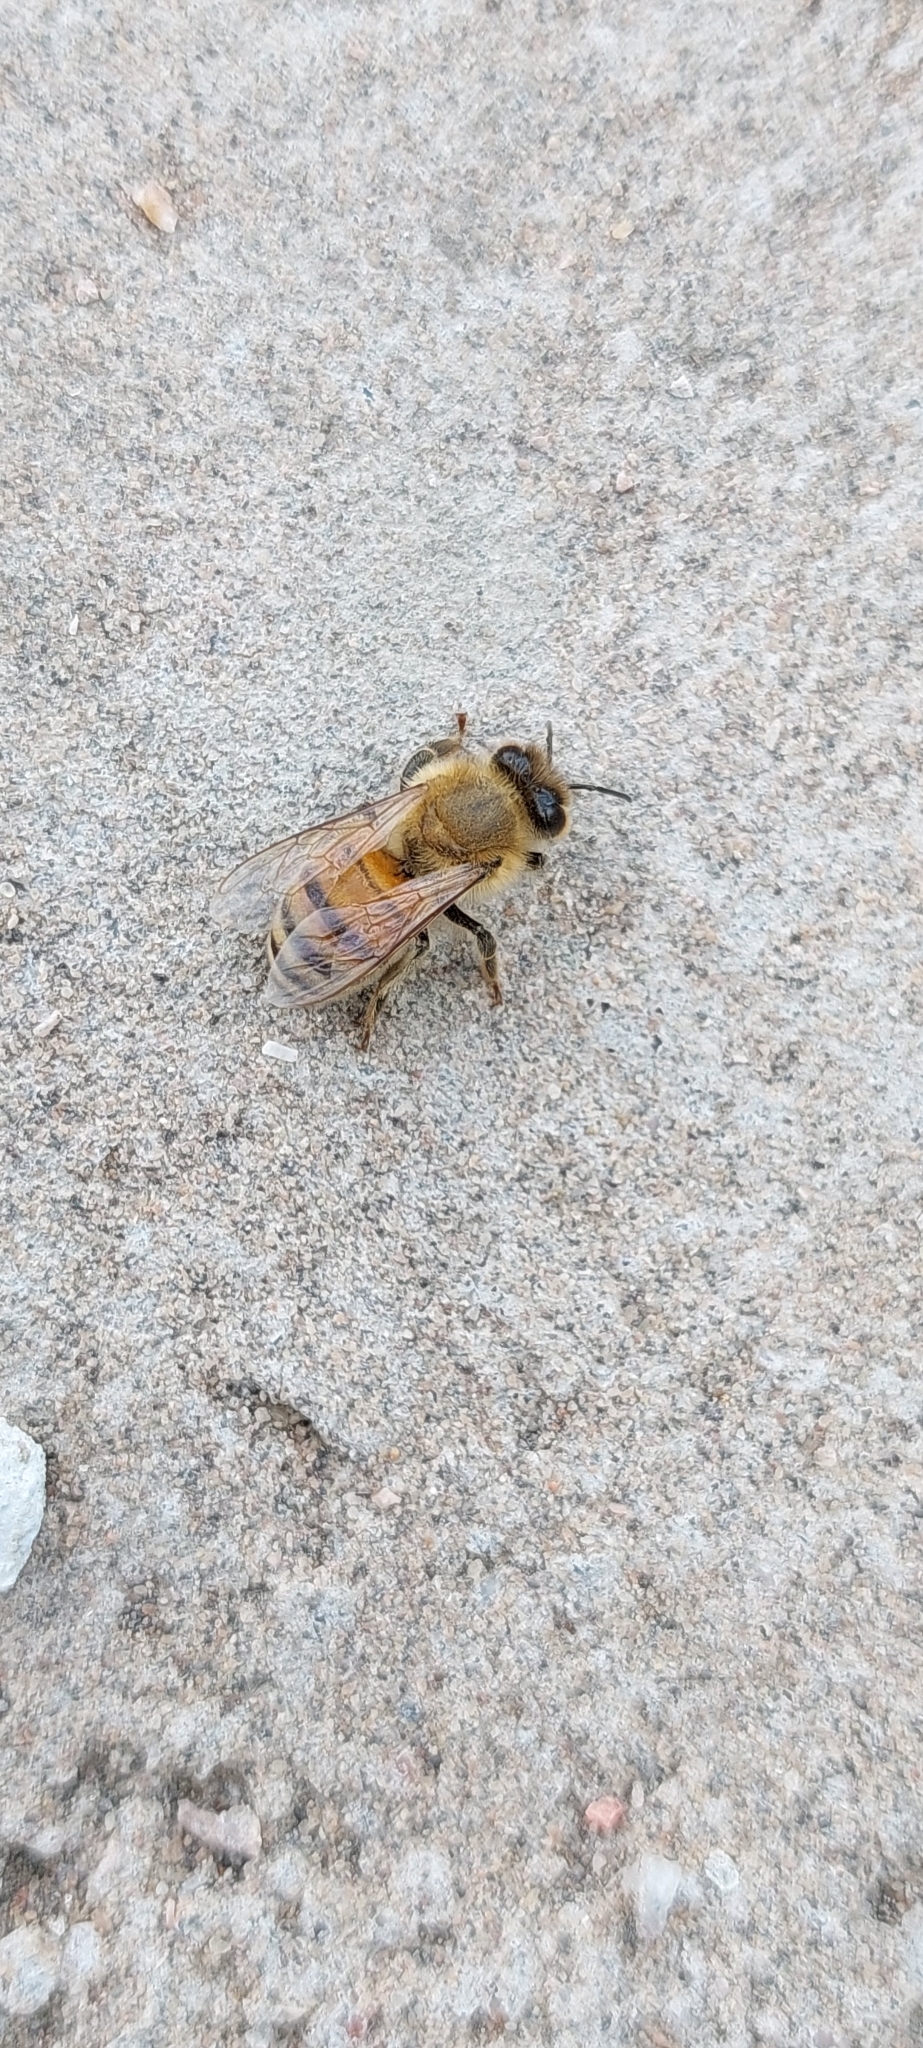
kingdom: Animalia
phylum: Arthropoda
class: Insecta
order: Hymenoptera
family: Apidae
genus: Apis
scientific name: Apis mellifera
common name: Honey bee
